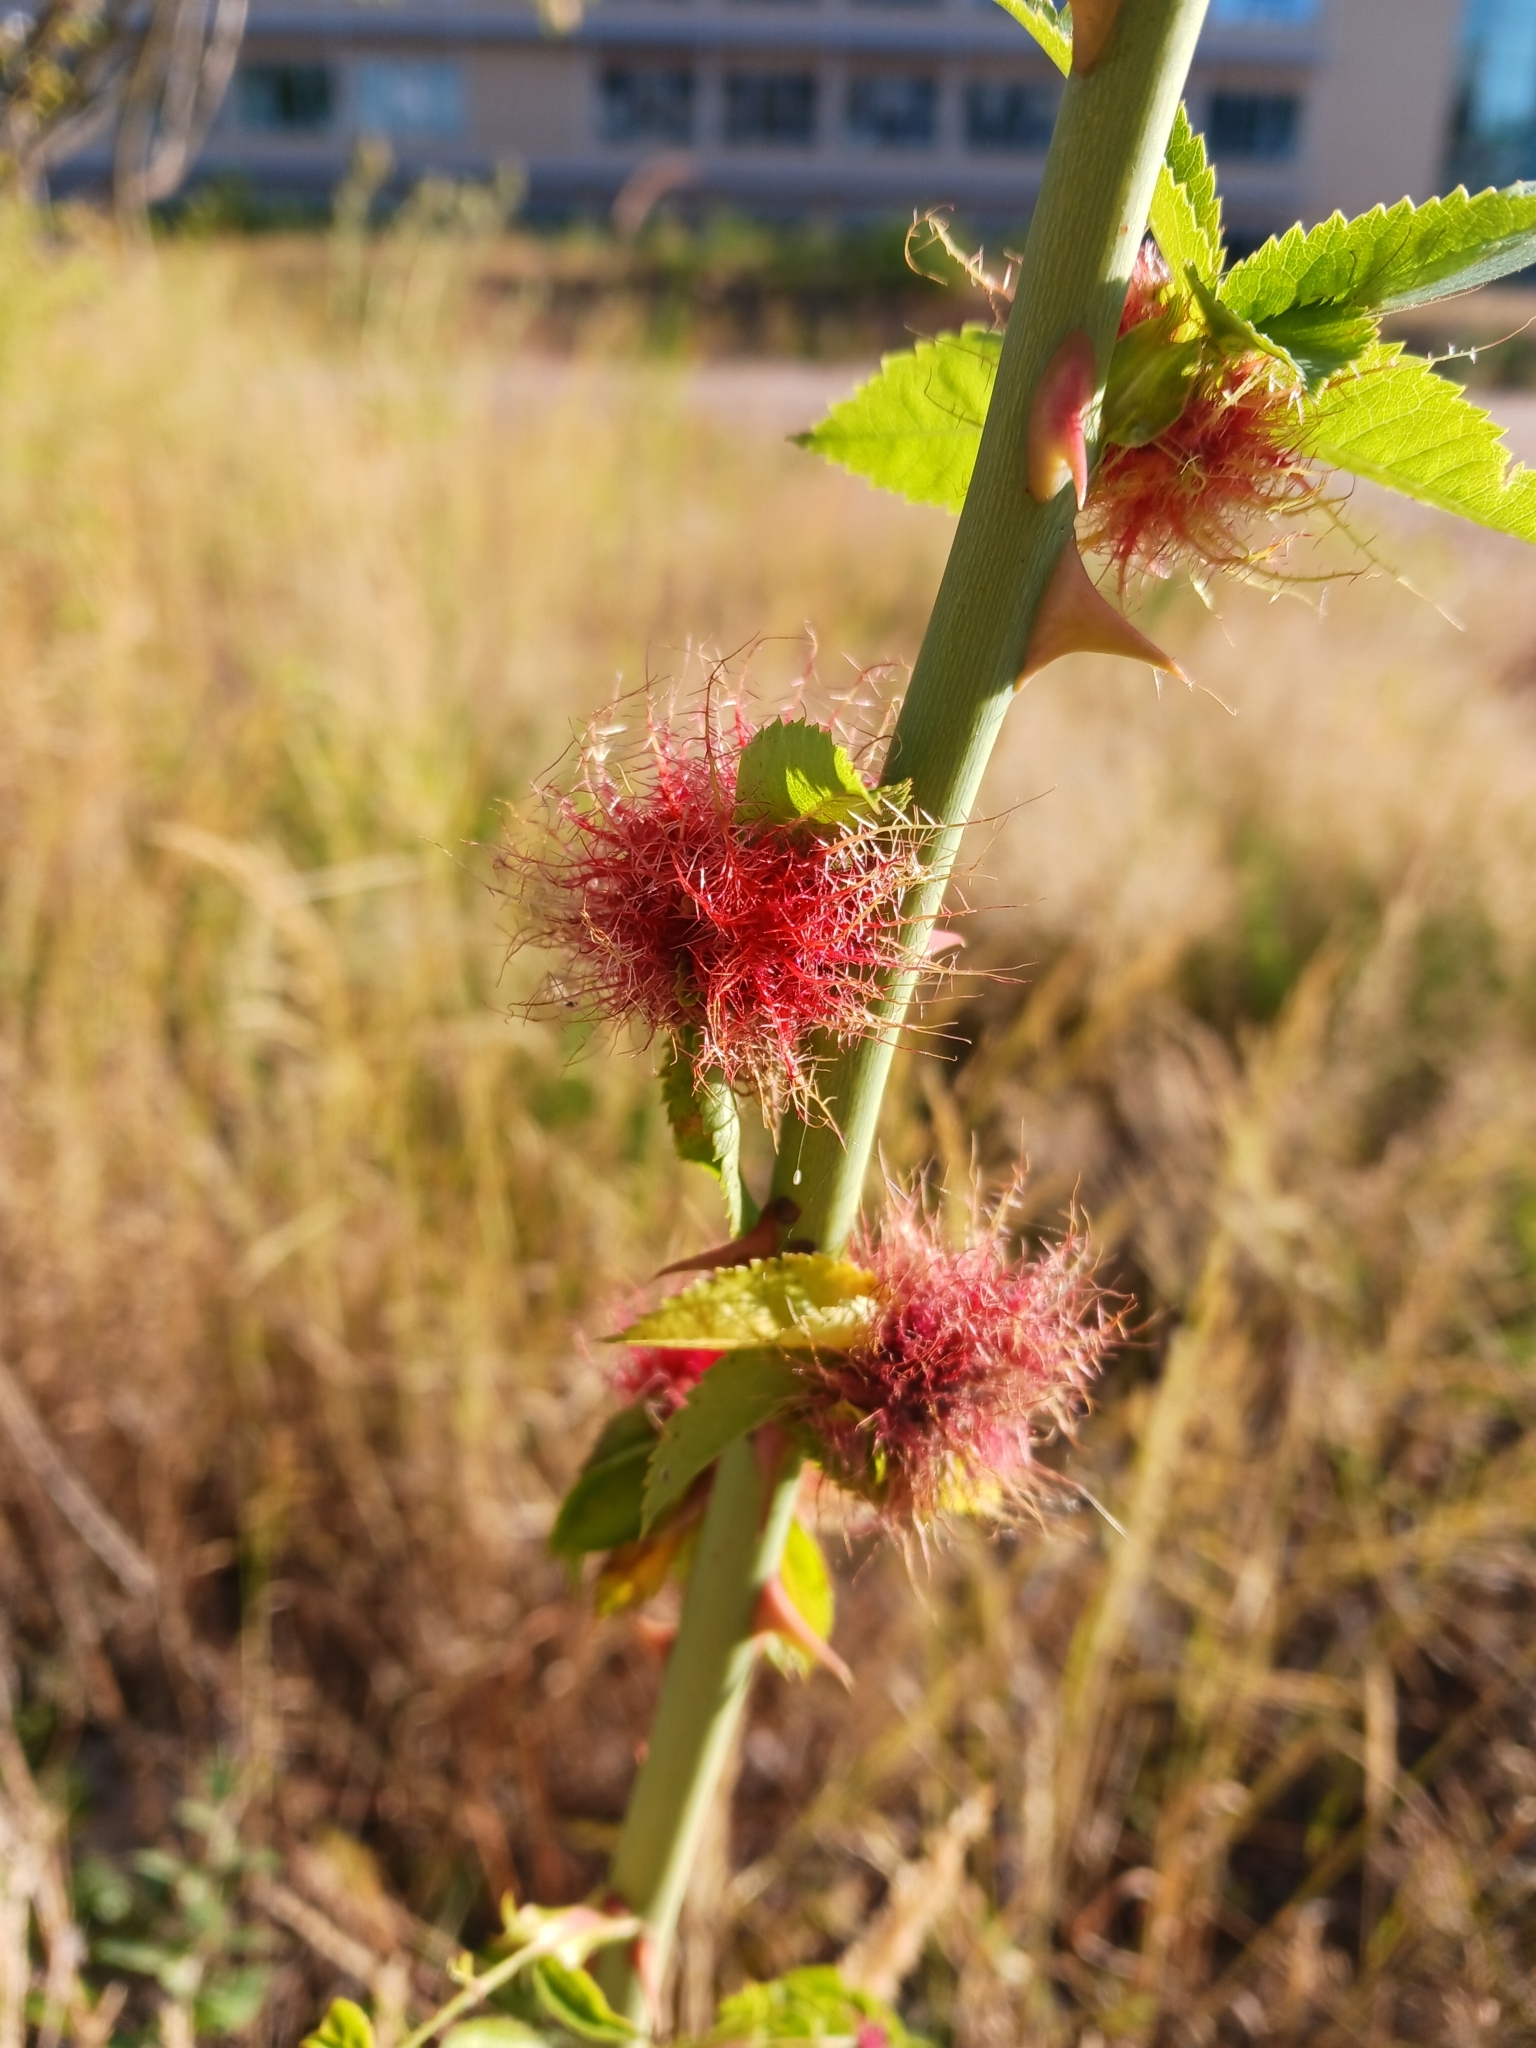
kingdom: Animalia
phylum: Arthropoda
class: Insecta
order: Hymenoptera
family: Cynipidae
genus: Diplolepis
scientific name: Diplolepis rosae
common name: Bedeguar gall
